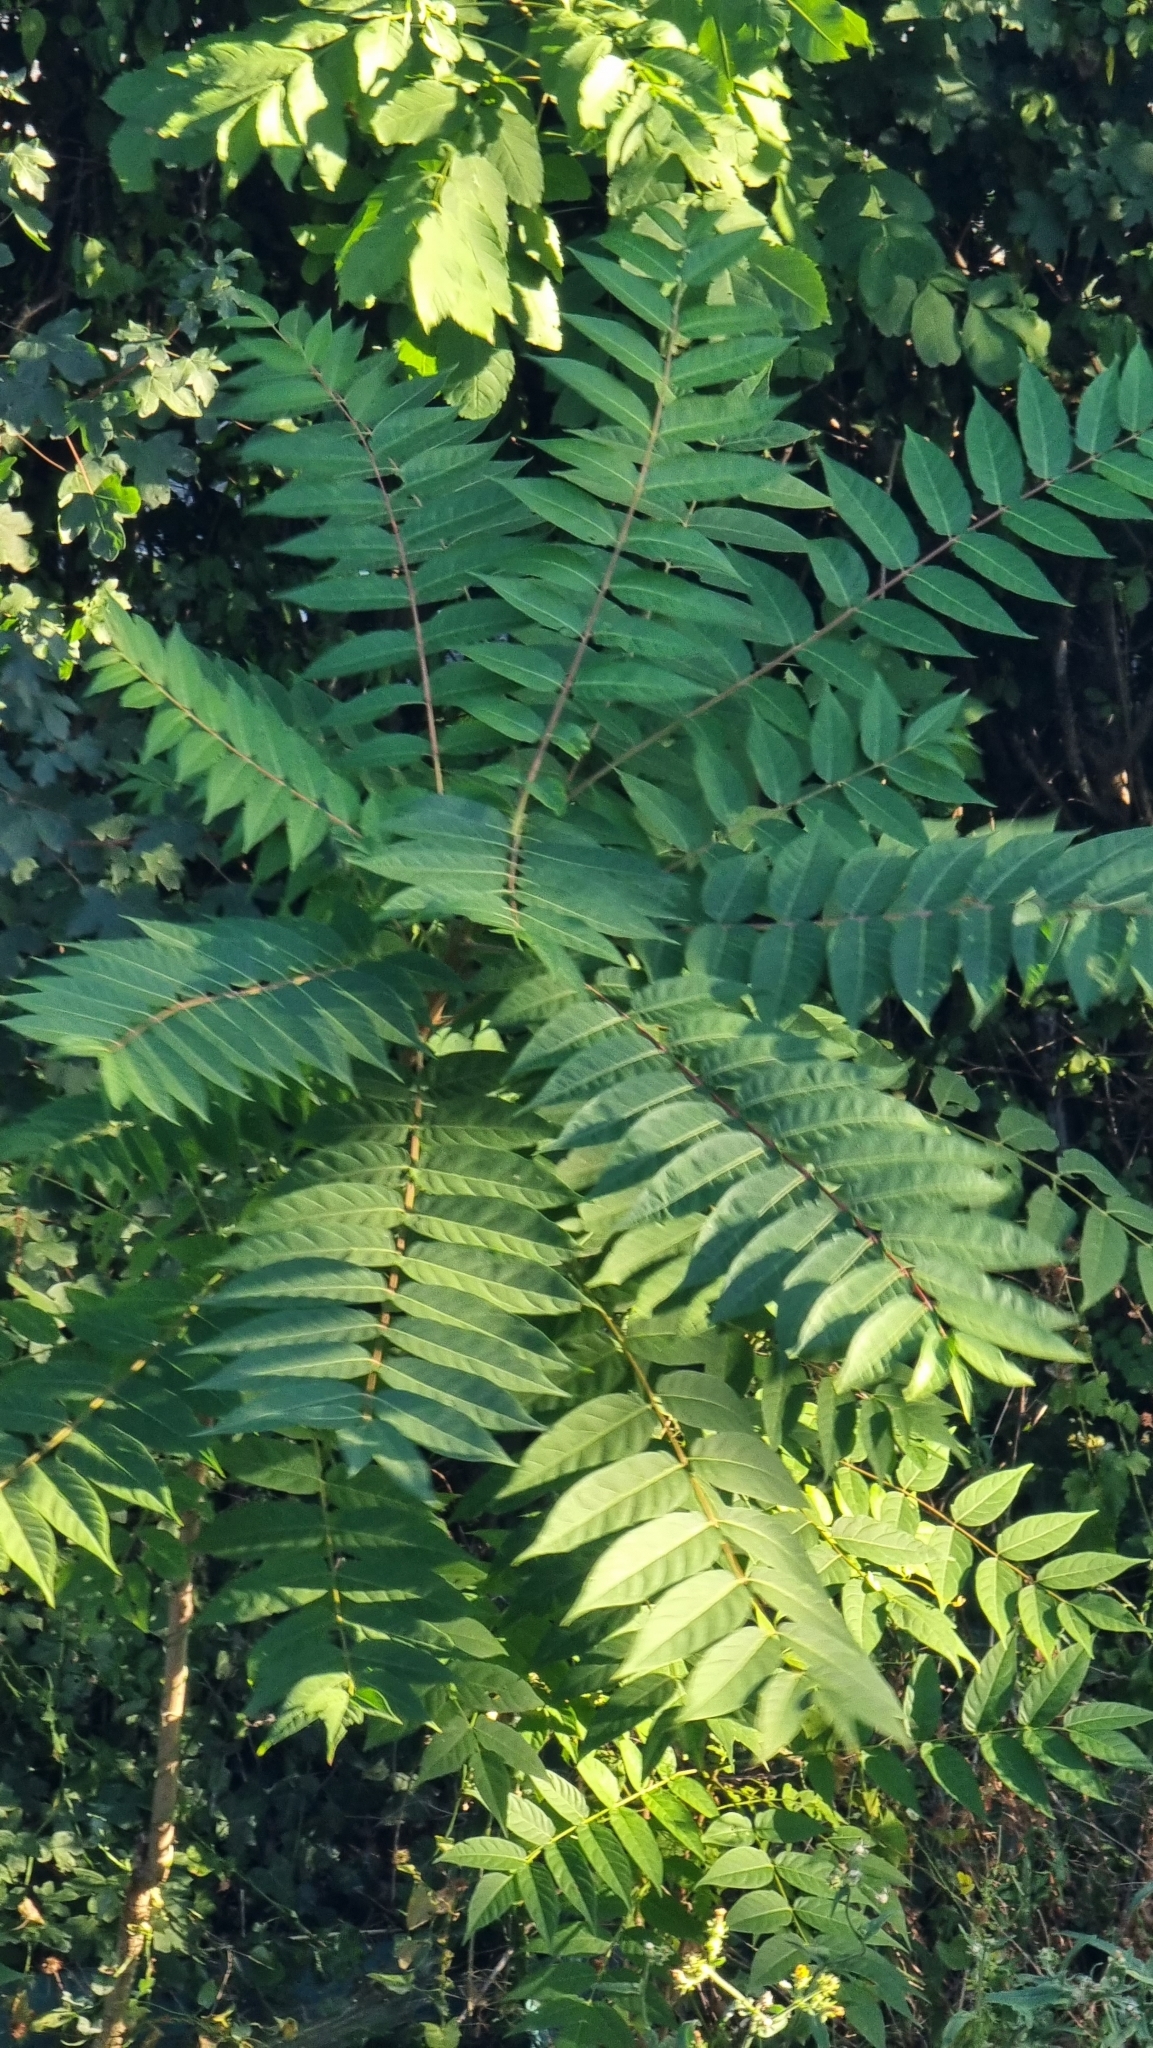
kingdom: Plantae
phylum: Tracheophyta
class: Magnoliopsida
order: Sapindales
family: Simaroubaceae
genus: Ailanthus
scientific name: Ailanthus altissima
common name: Tree-of-heaven
